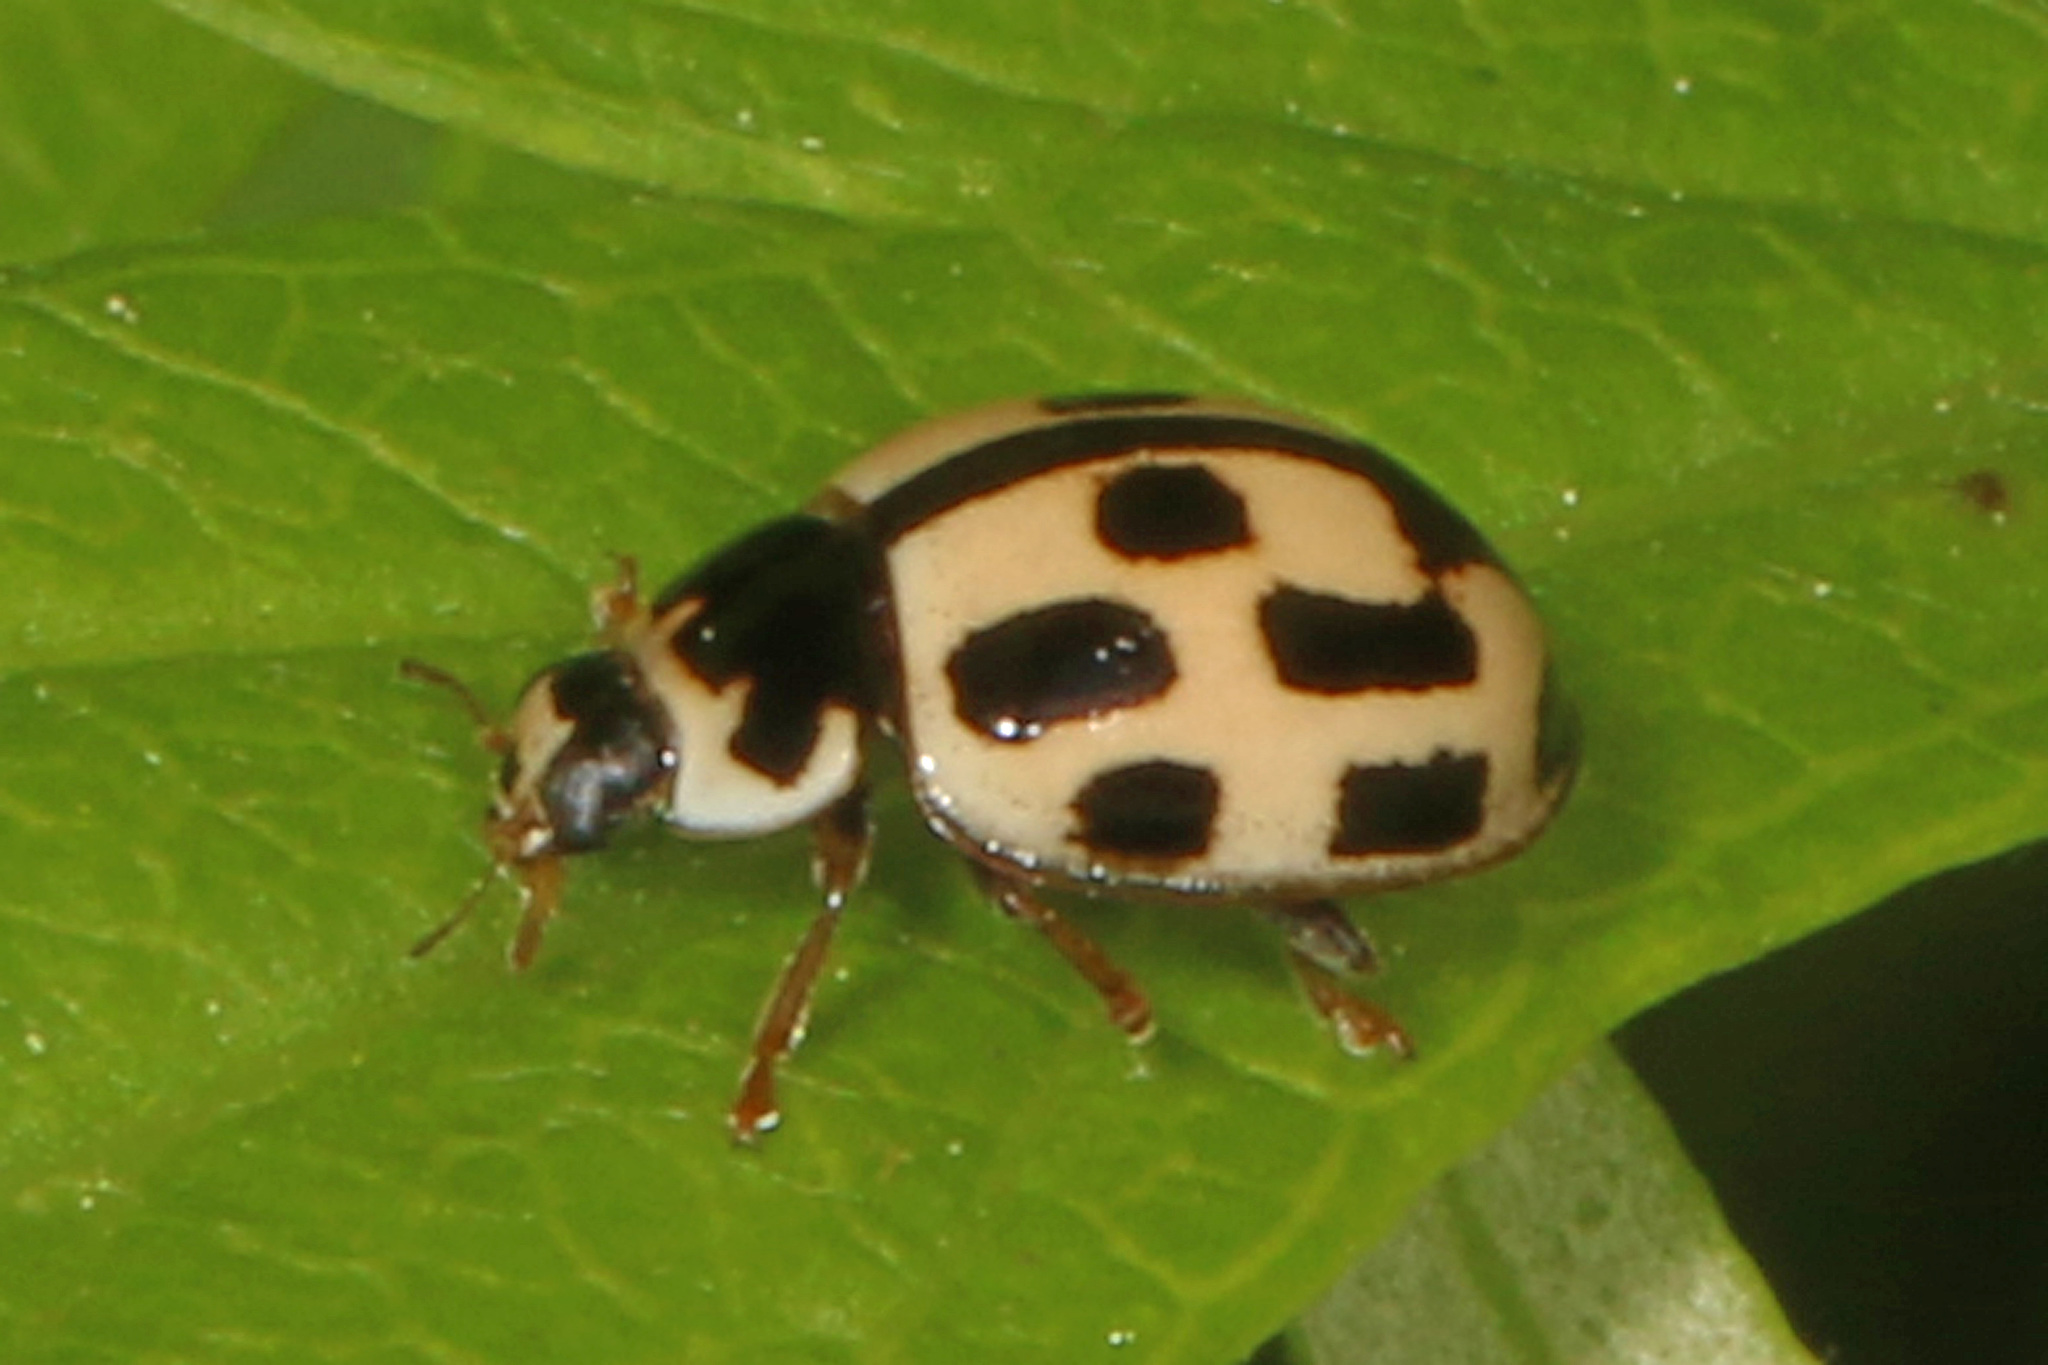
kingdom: Animalia
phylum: Arthropoda
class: Insecta
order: Coleoptera
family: Coccinellidae
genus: Propylaea
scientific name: Propylaea quatuordecimpunctata
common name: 14-spotted ladybird beetle
